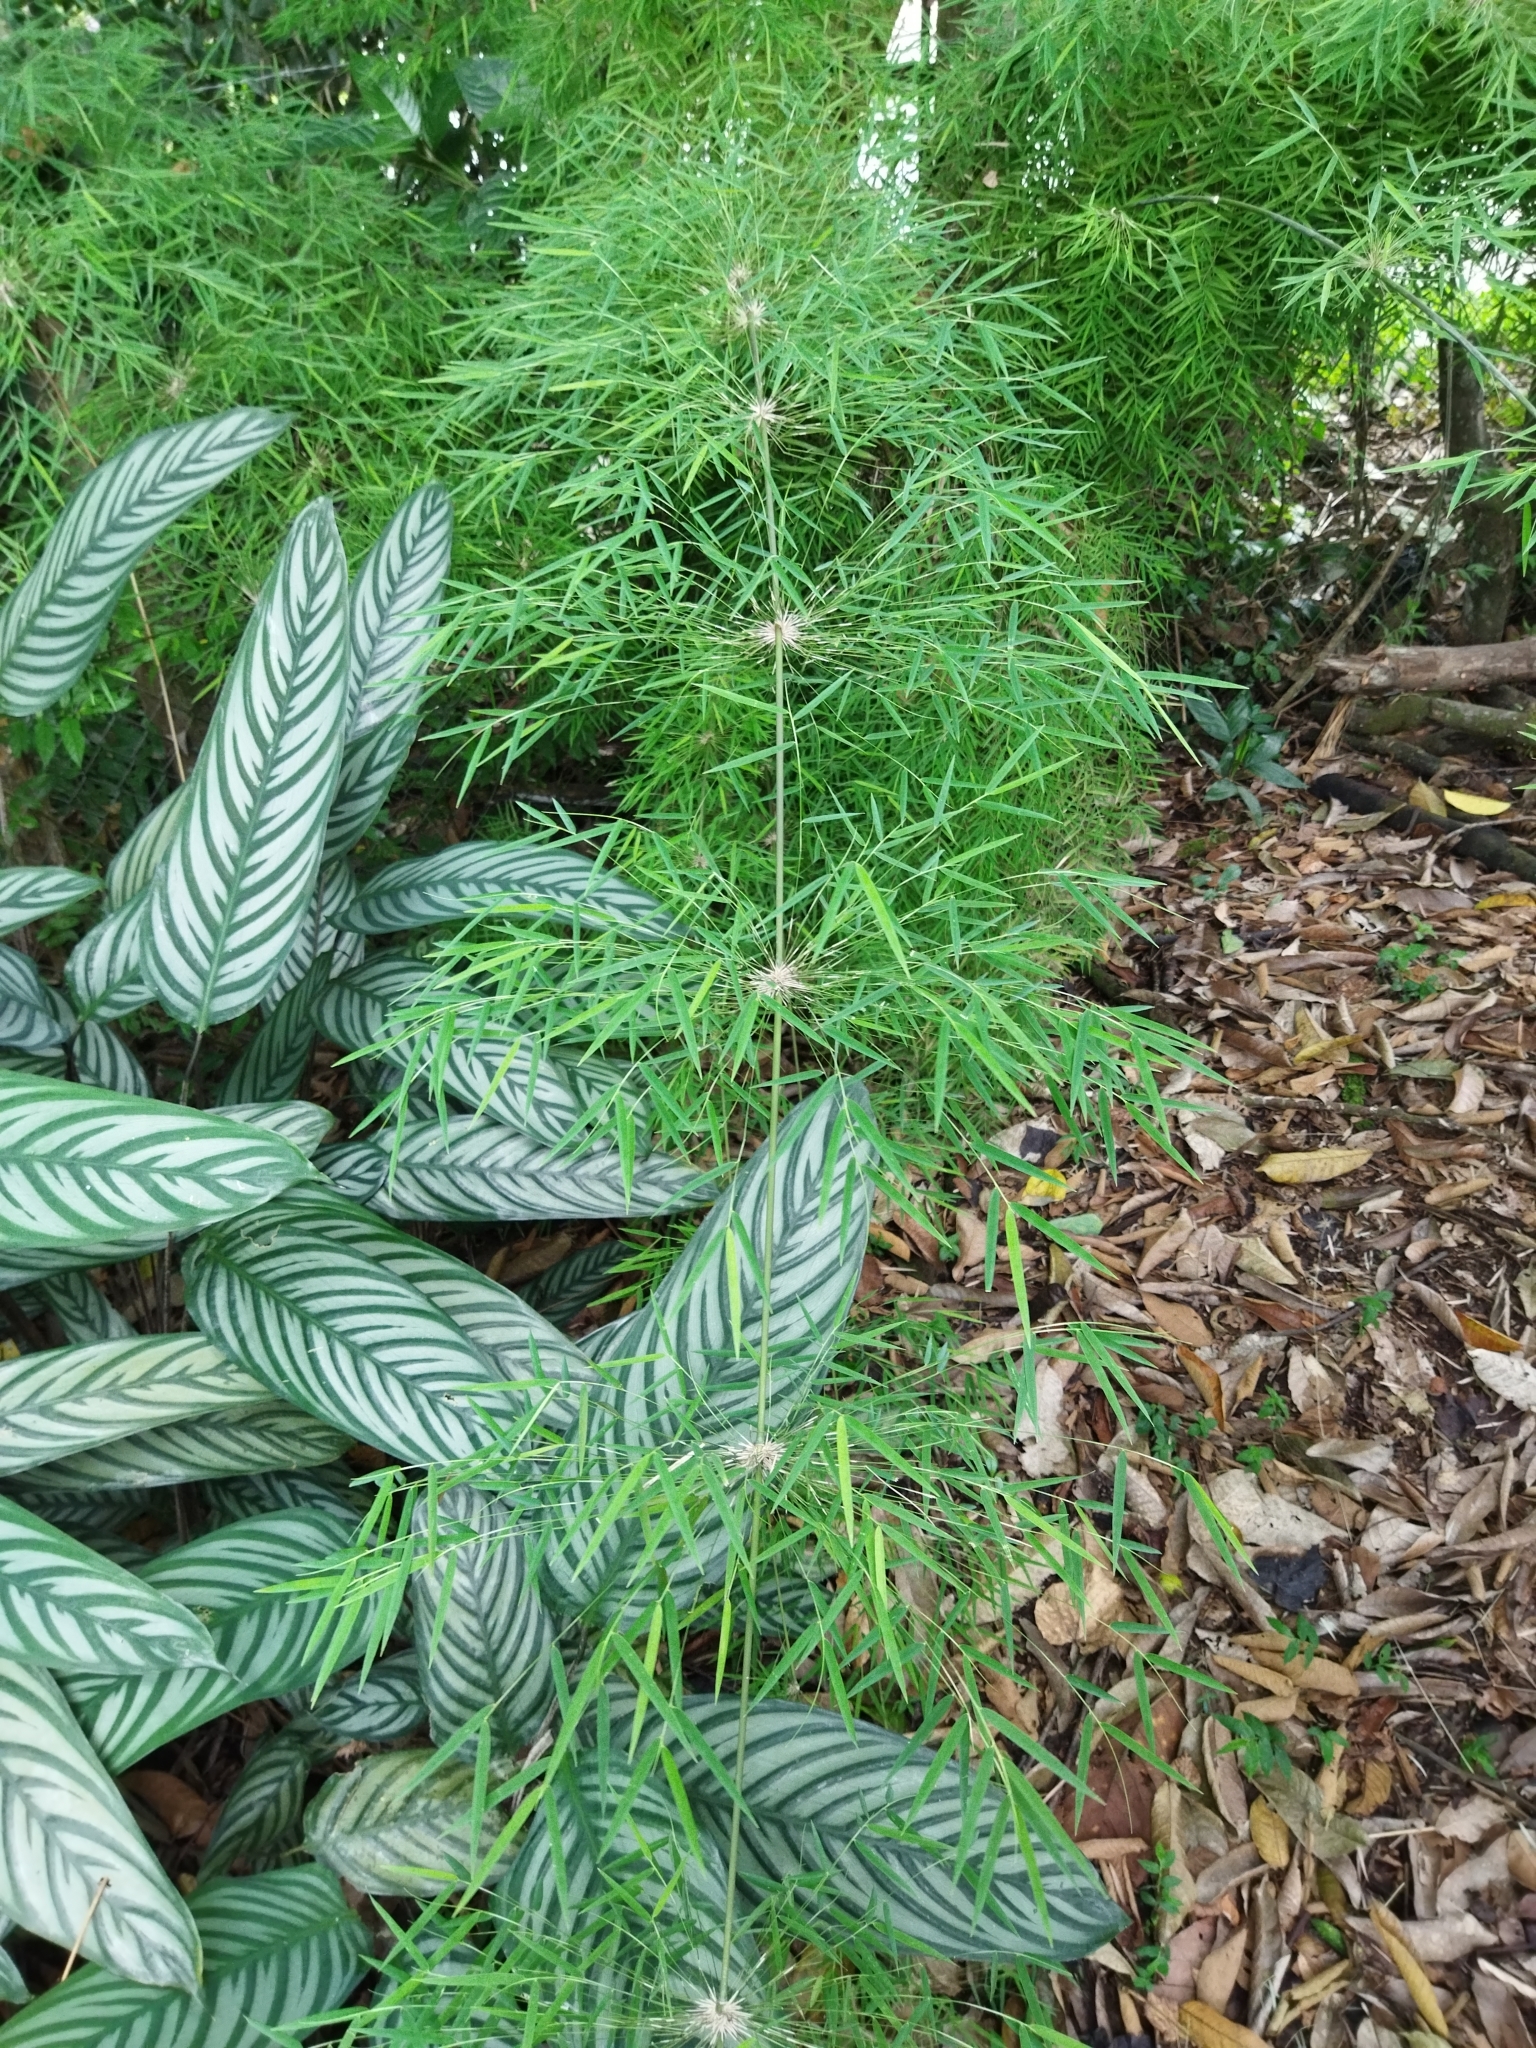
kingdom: Plantae
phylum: Tracheophyta
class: Liliopsida
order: Poales
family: Poaceae
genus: Rhipidocladum
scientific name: Rhipidocladum racemiflorum
